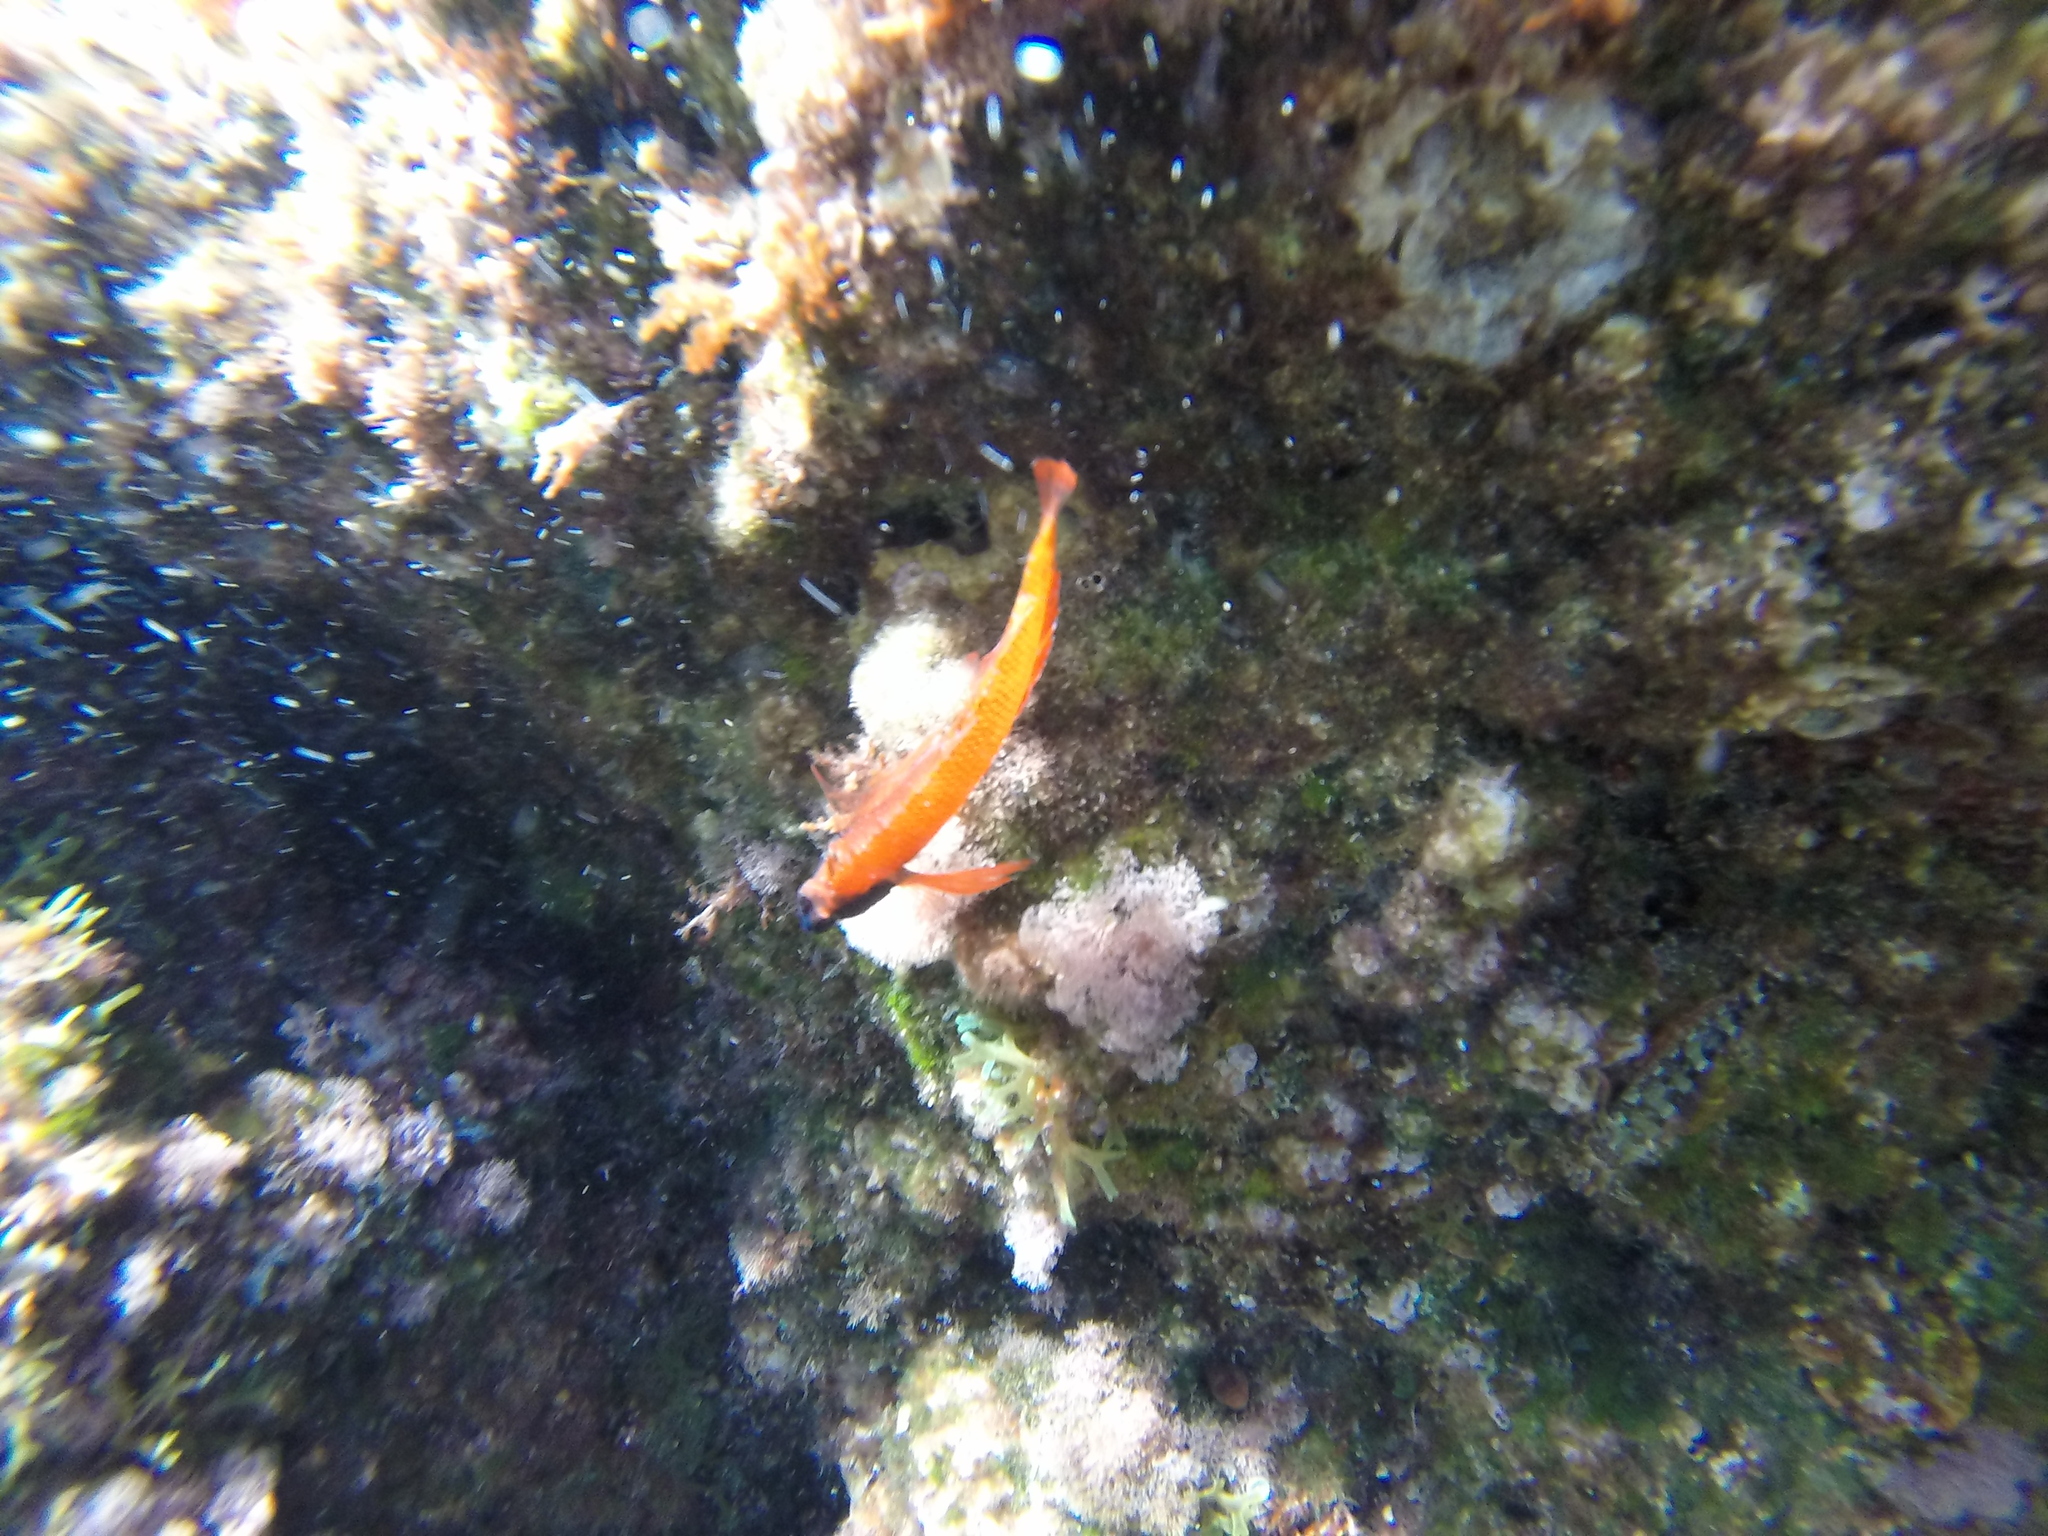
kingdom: Animalia
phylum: Chordata
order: Perciformes
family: Tripterygiidae
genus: Tripterygion
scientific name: Tripterygion tripteronotum
